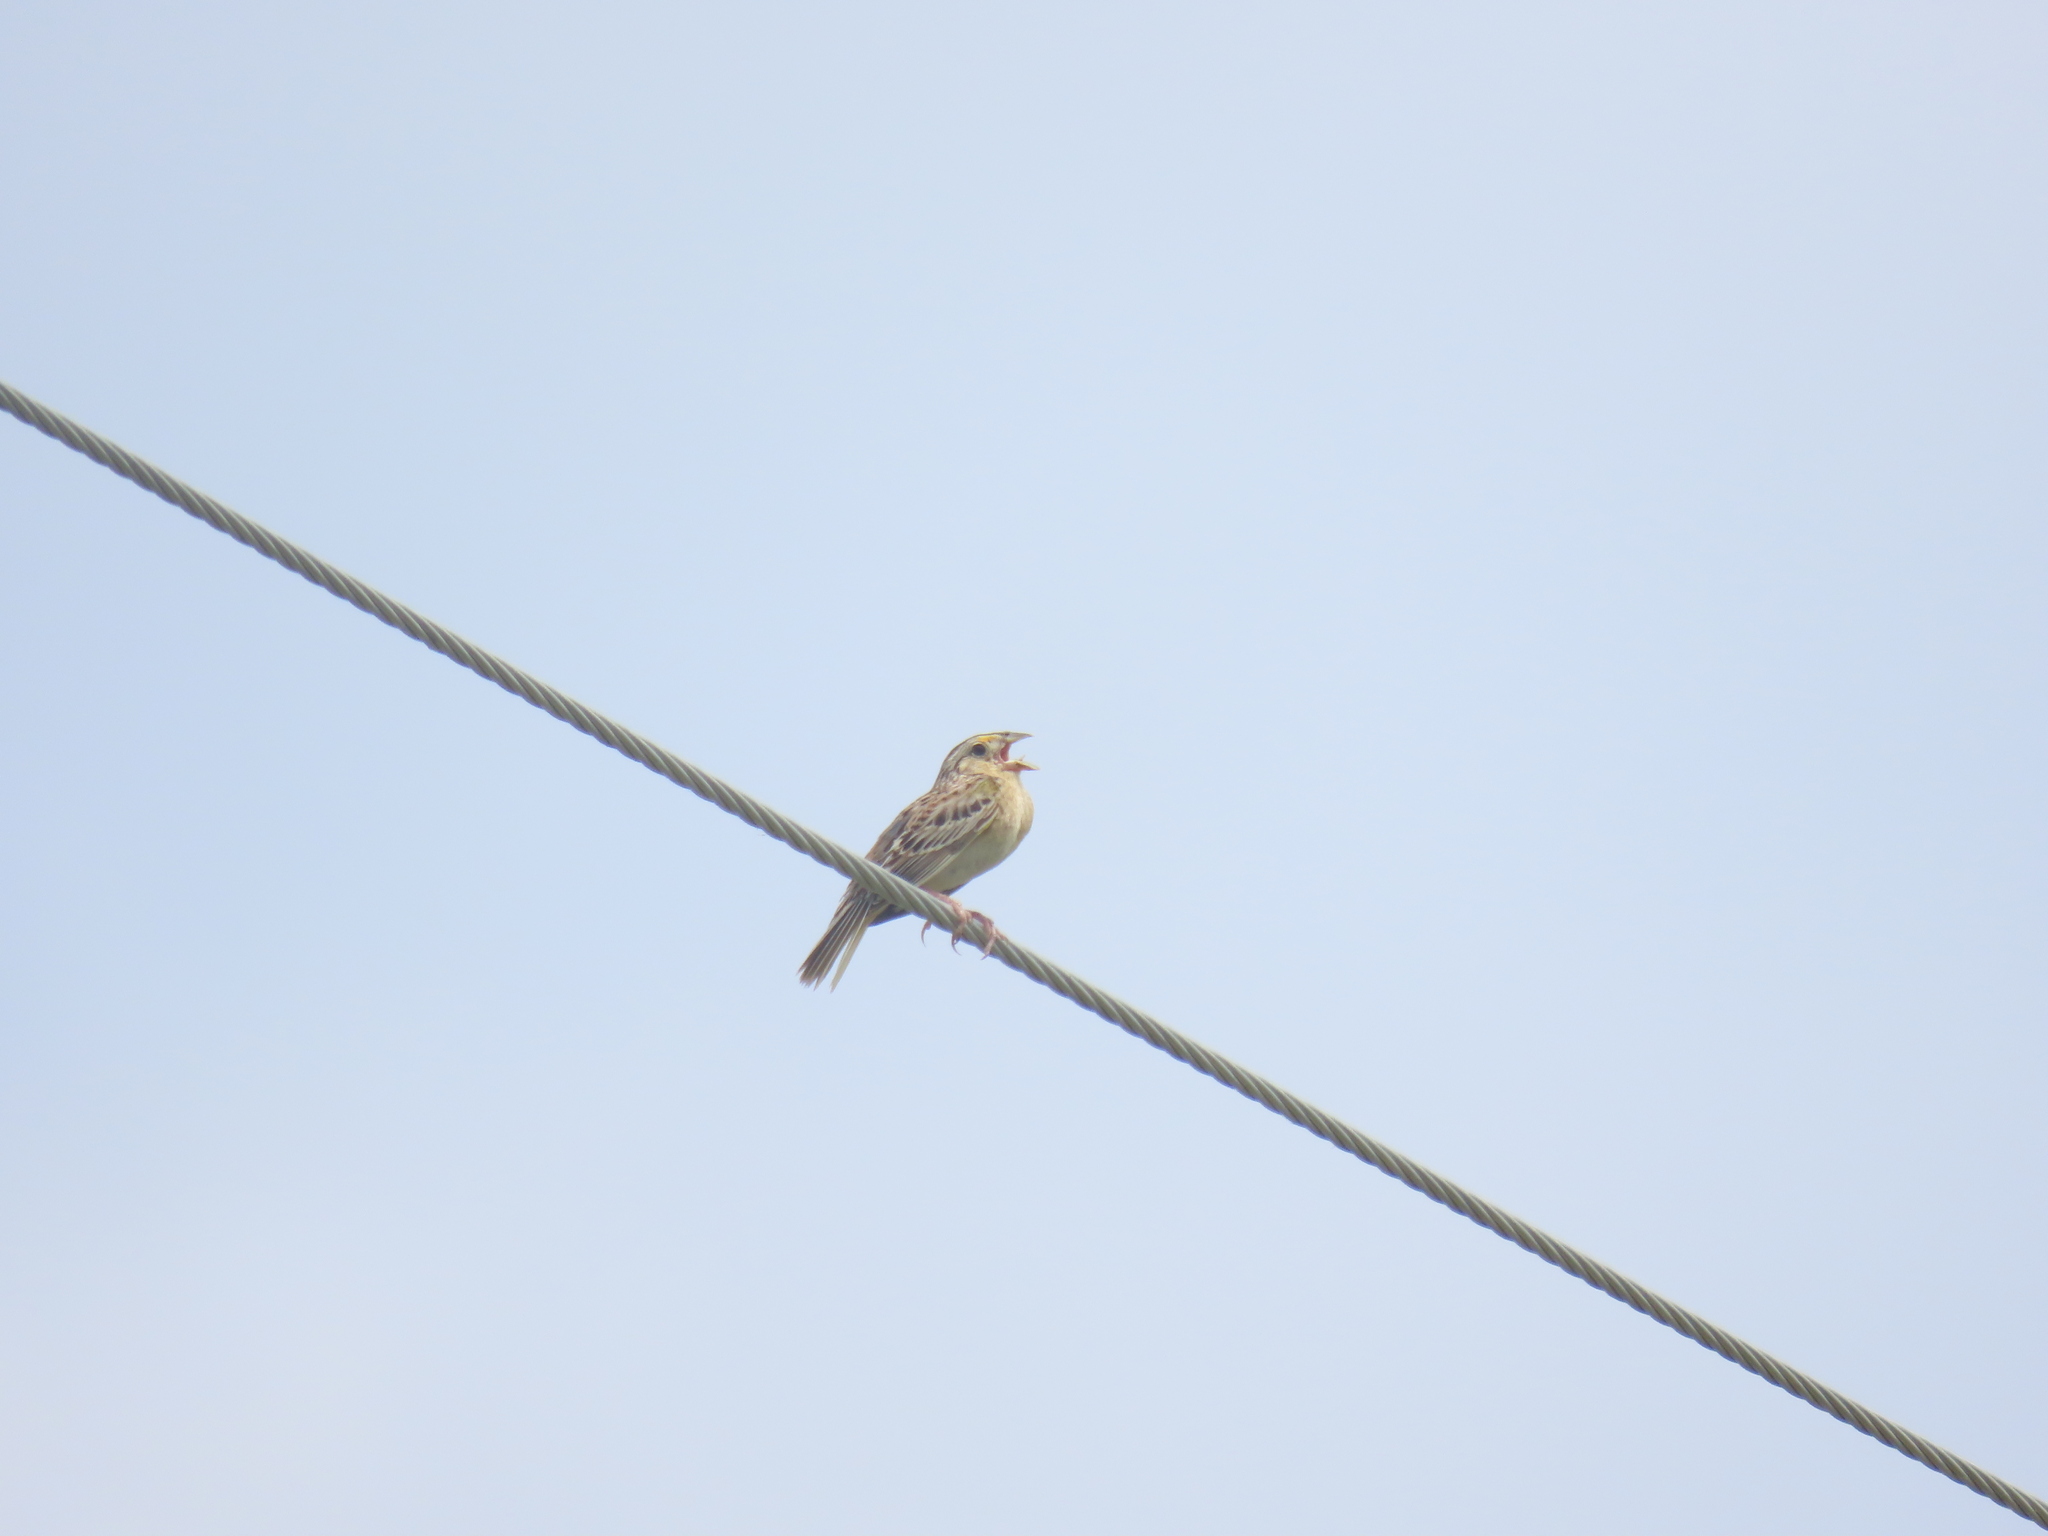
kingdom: Animalia
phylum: Chordata
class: Aves
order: Passeriformes
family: Passerellidae
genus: Ammodramus
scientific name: Ammodramus savannarum
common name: Grasshopper sparrow
